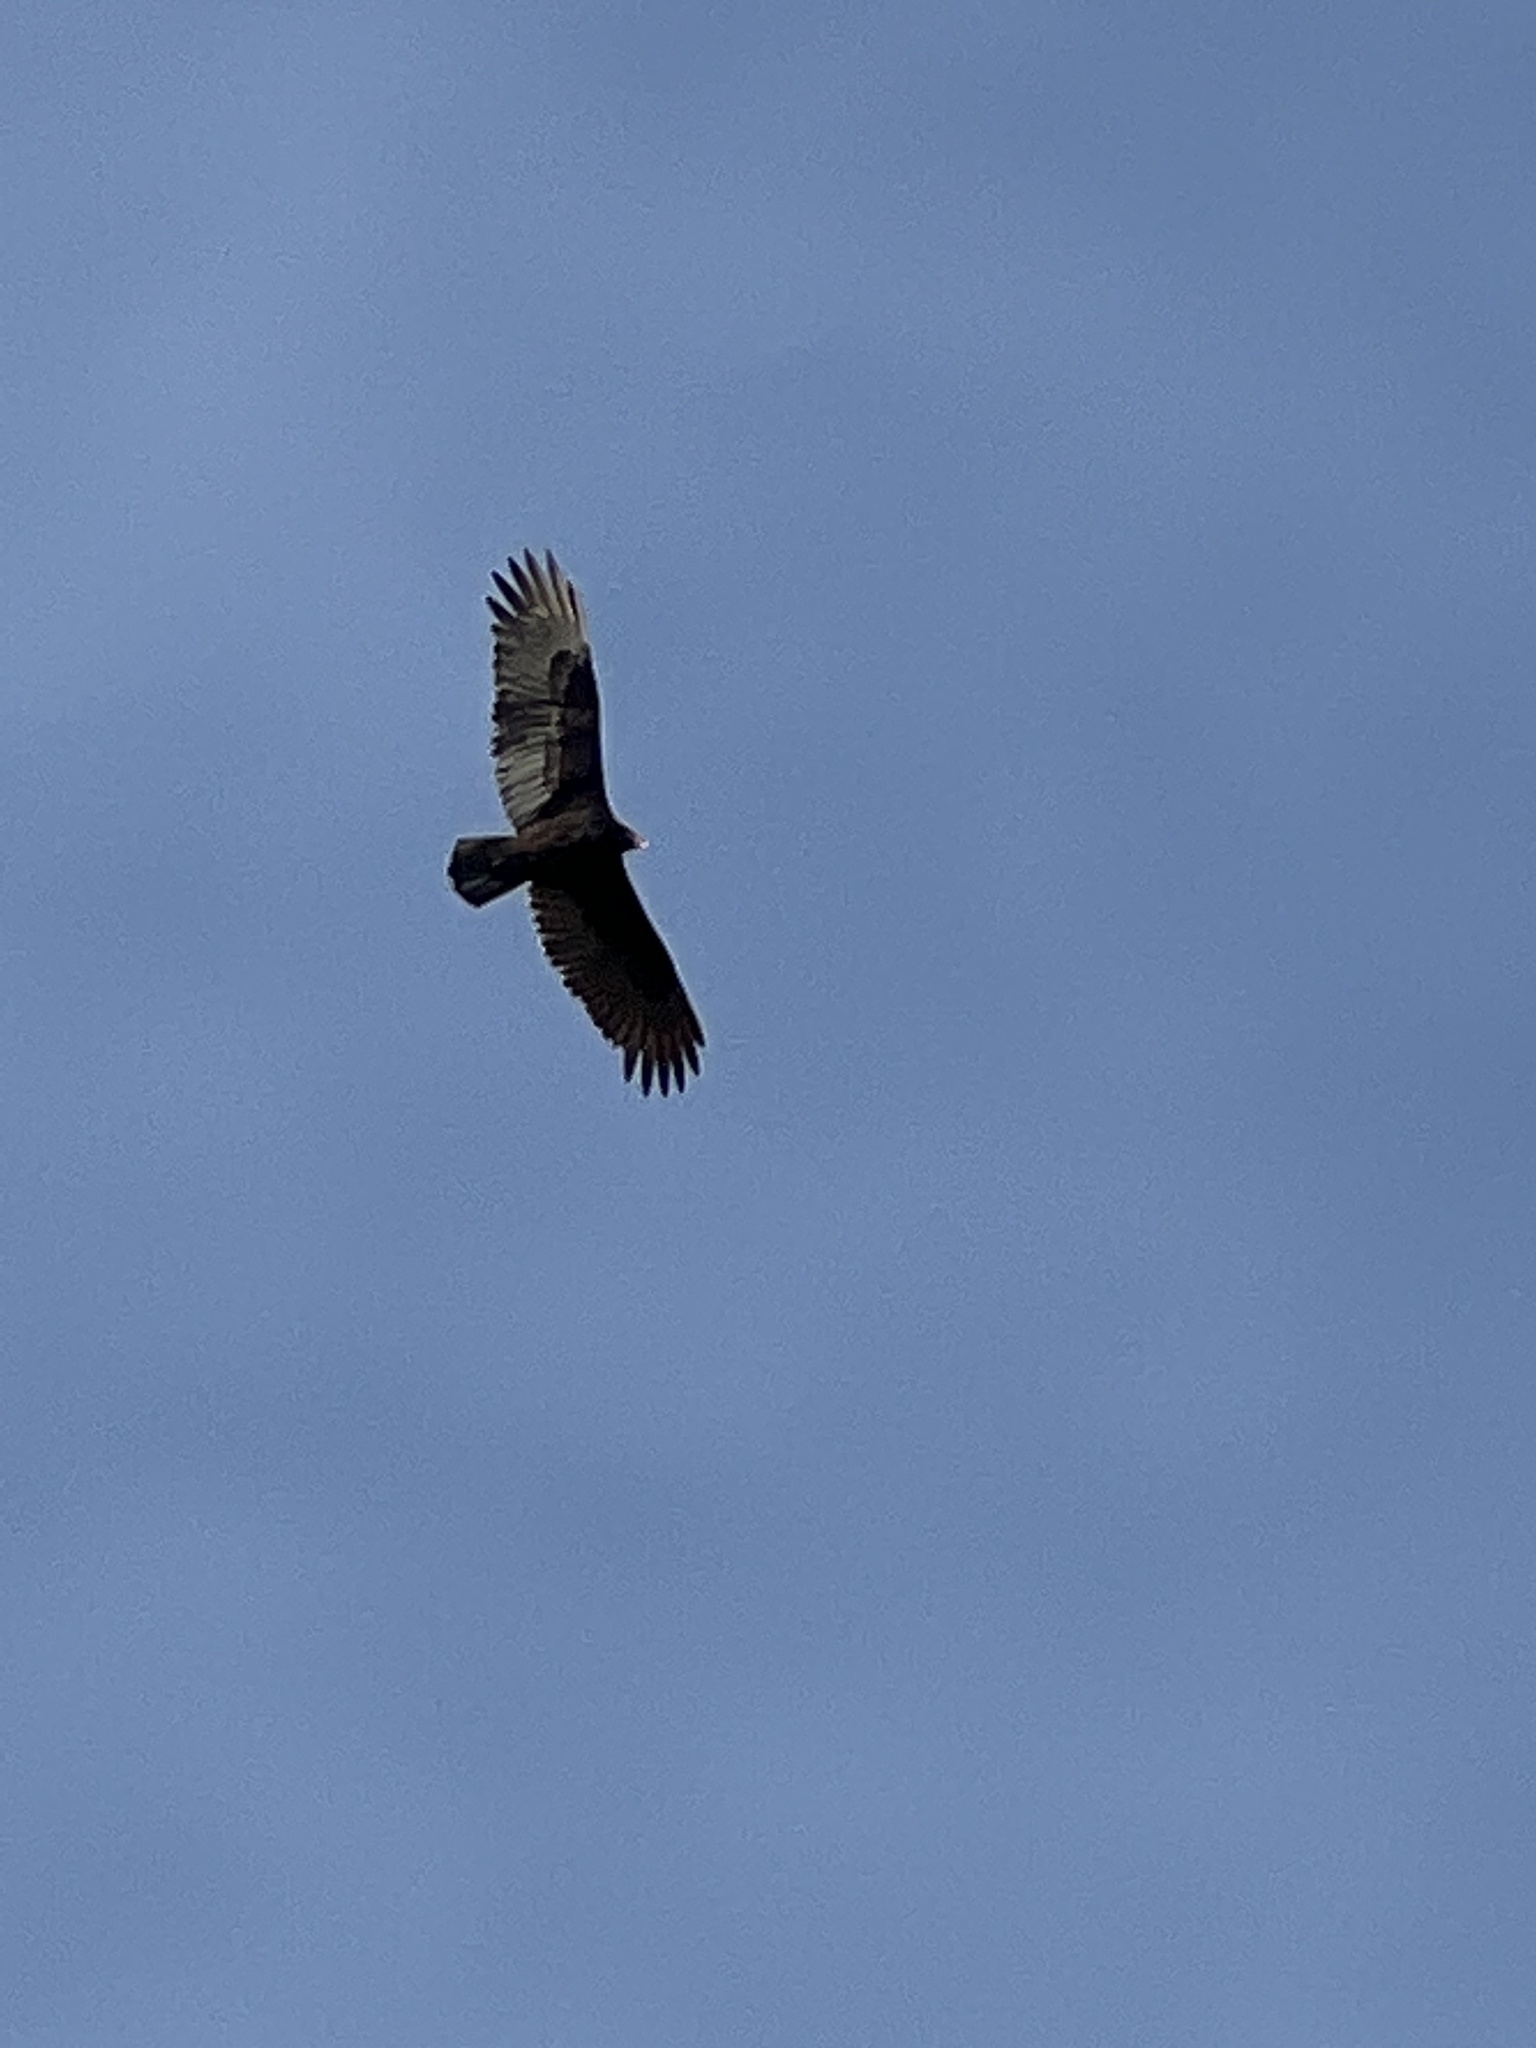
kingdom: Animalia
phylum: Chordata
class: Aves
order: Accipitriformes
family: Cathartidae
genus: Cathartes
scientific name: Cathartes aura
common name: Turkey vulture
